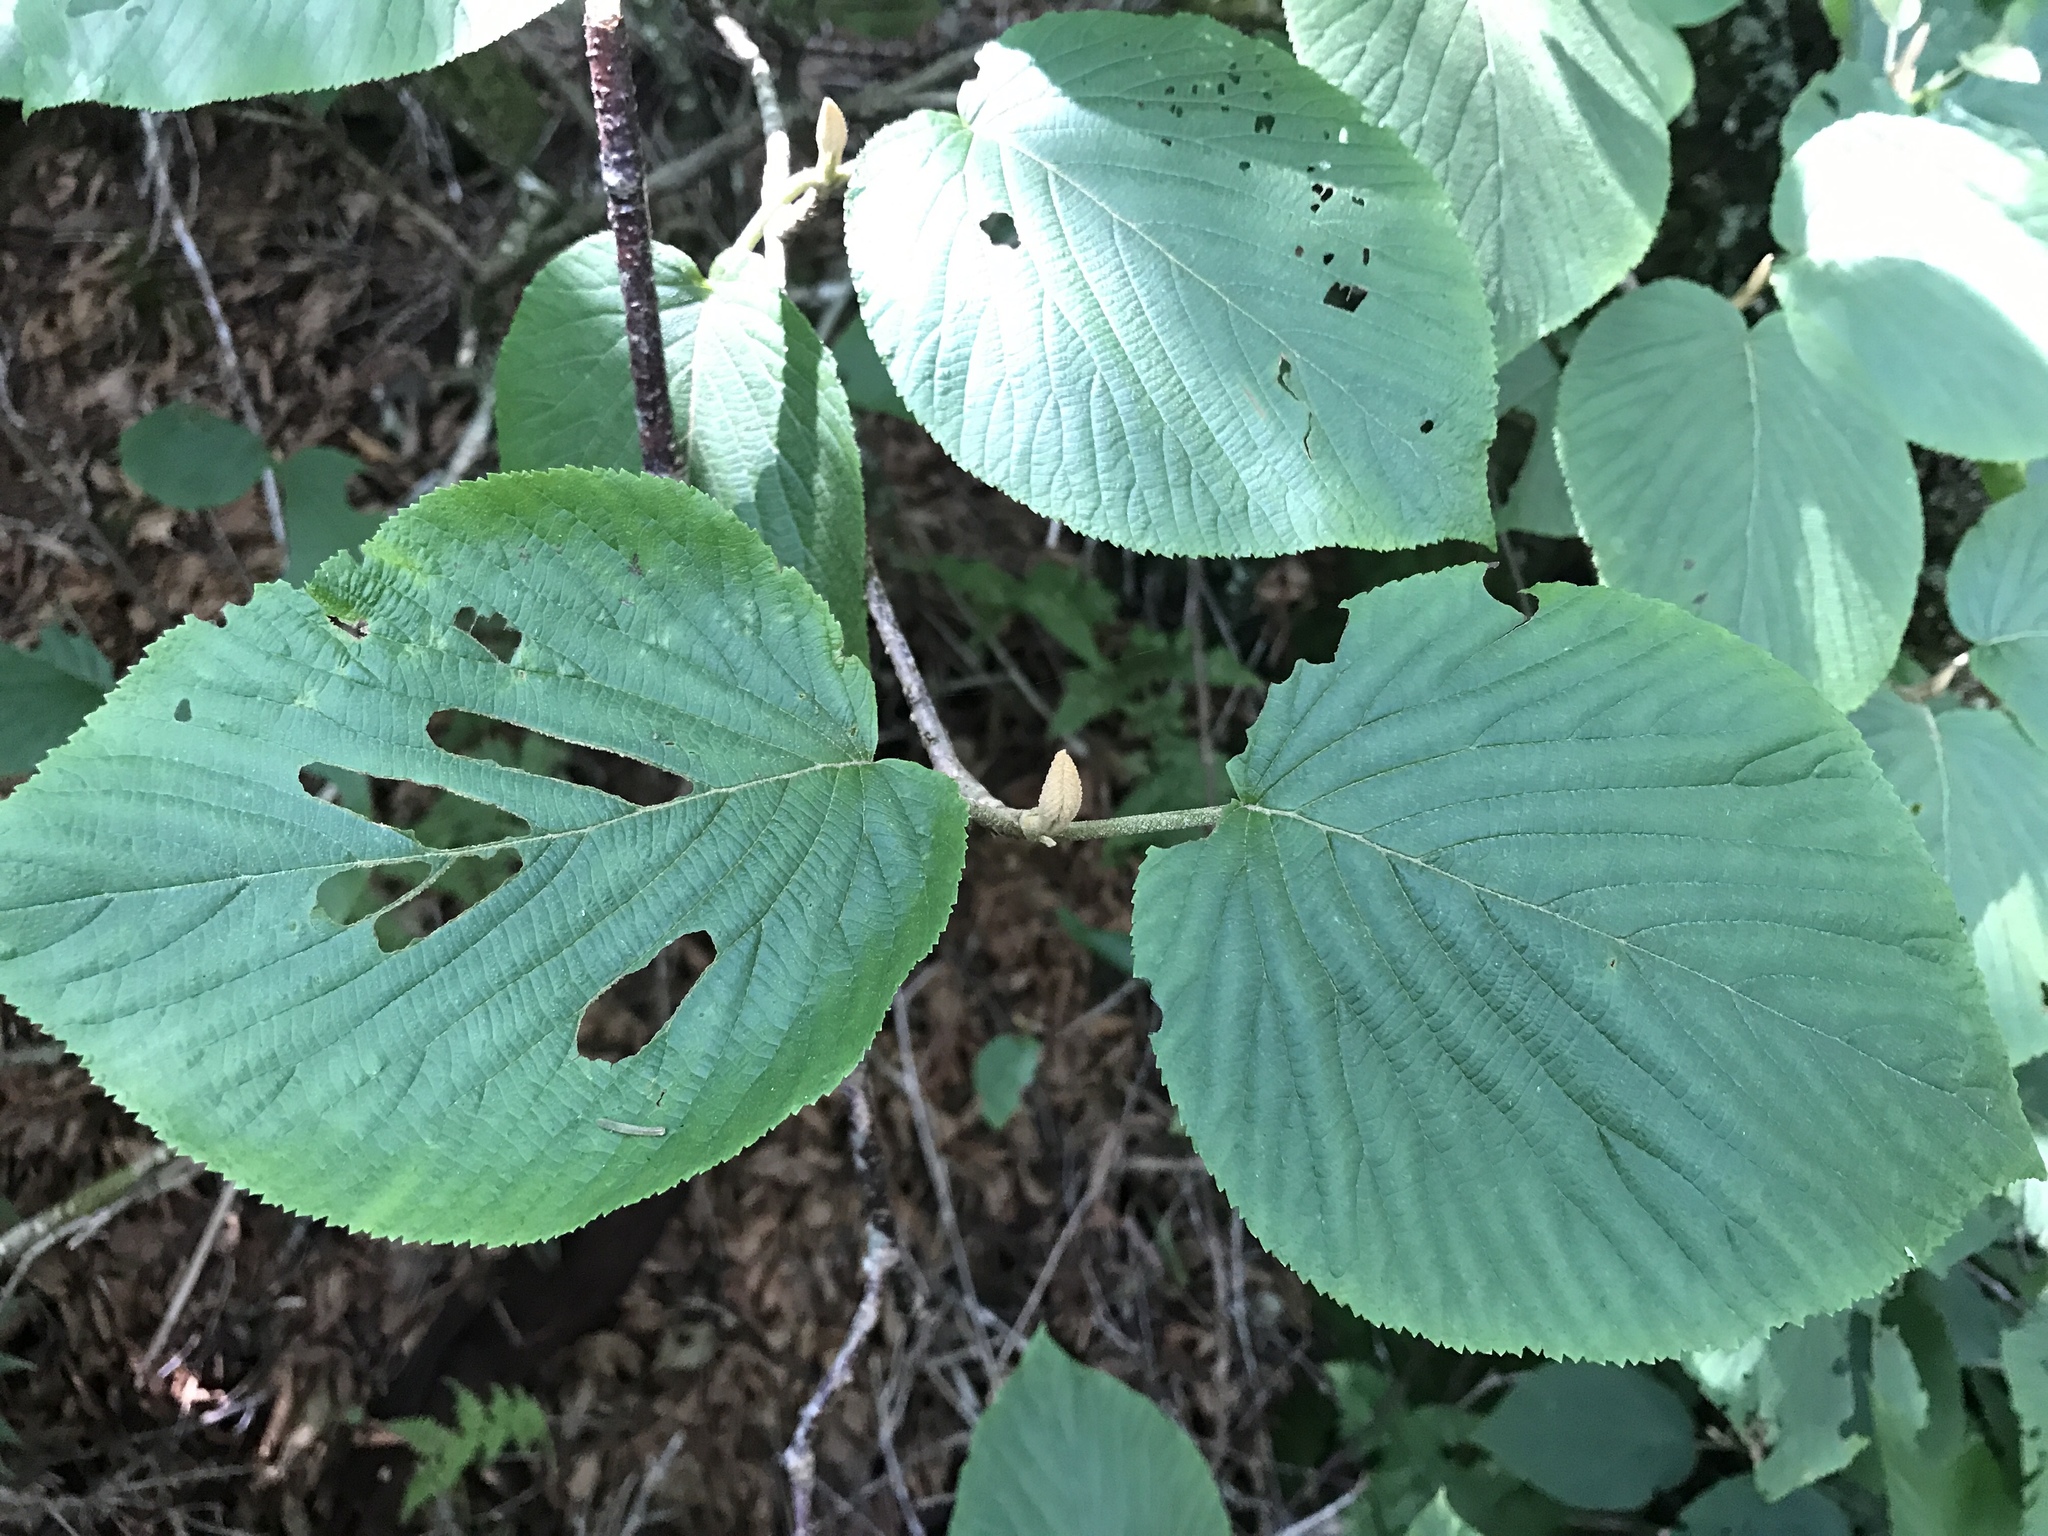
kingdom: Plantae
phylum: Tracheophyta
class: Magnoliopsida
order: Dipsacales
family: Viburnaceae
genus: Viburnum
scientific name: Viburnum lantanoides
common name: Hobblebush
